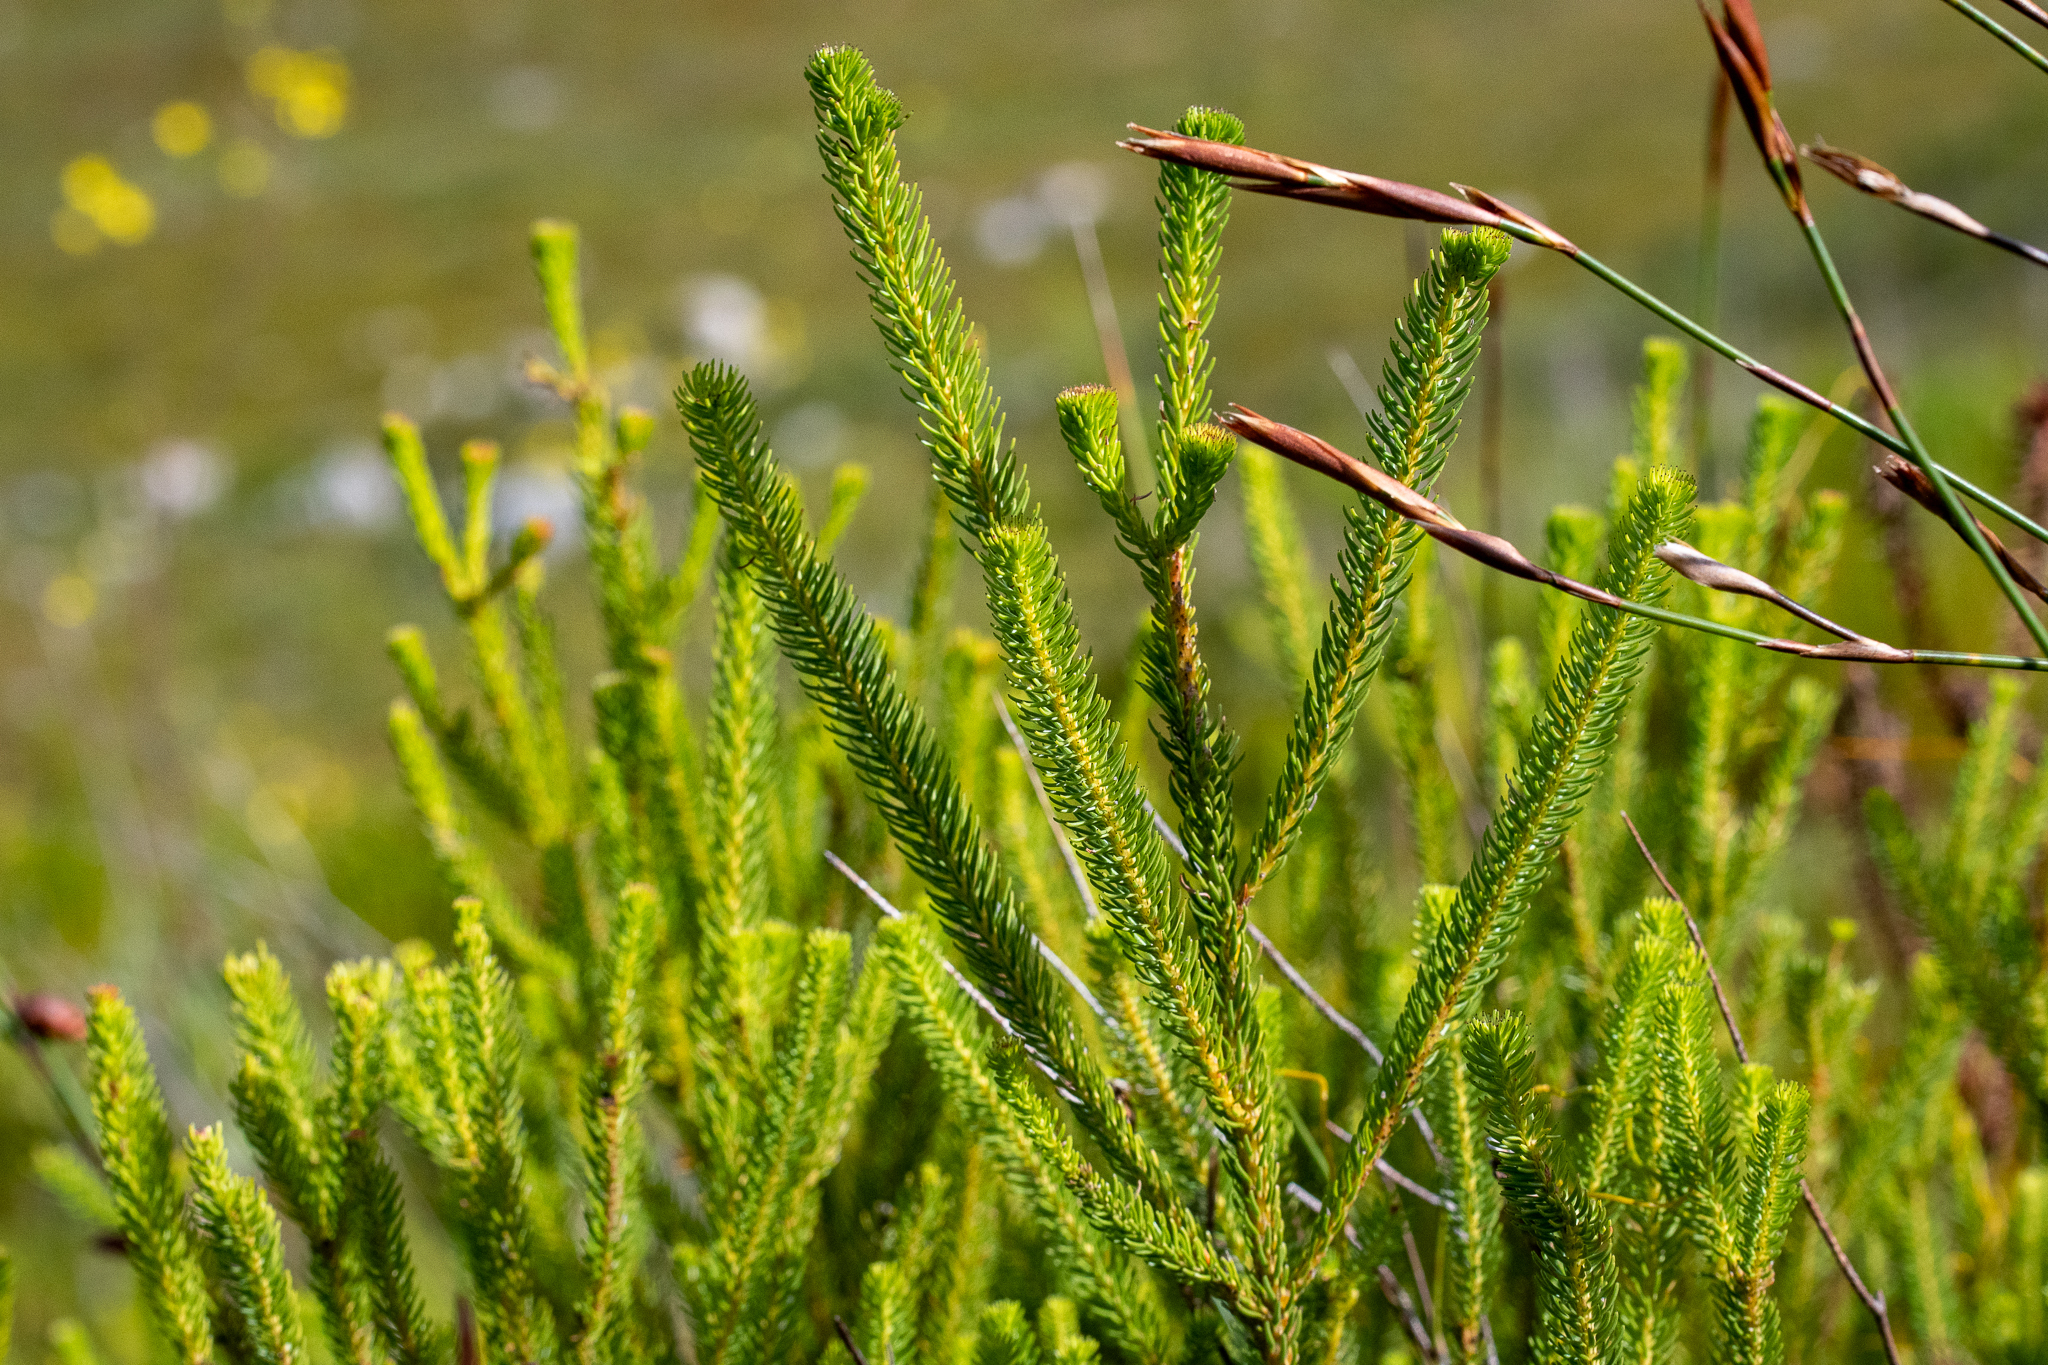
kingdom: Plantae
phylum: Tracheophyta
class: Magnoliopsida
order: Bruniales
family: Bruniaceae
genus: Berzelia
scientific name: Berzelia intermedia
